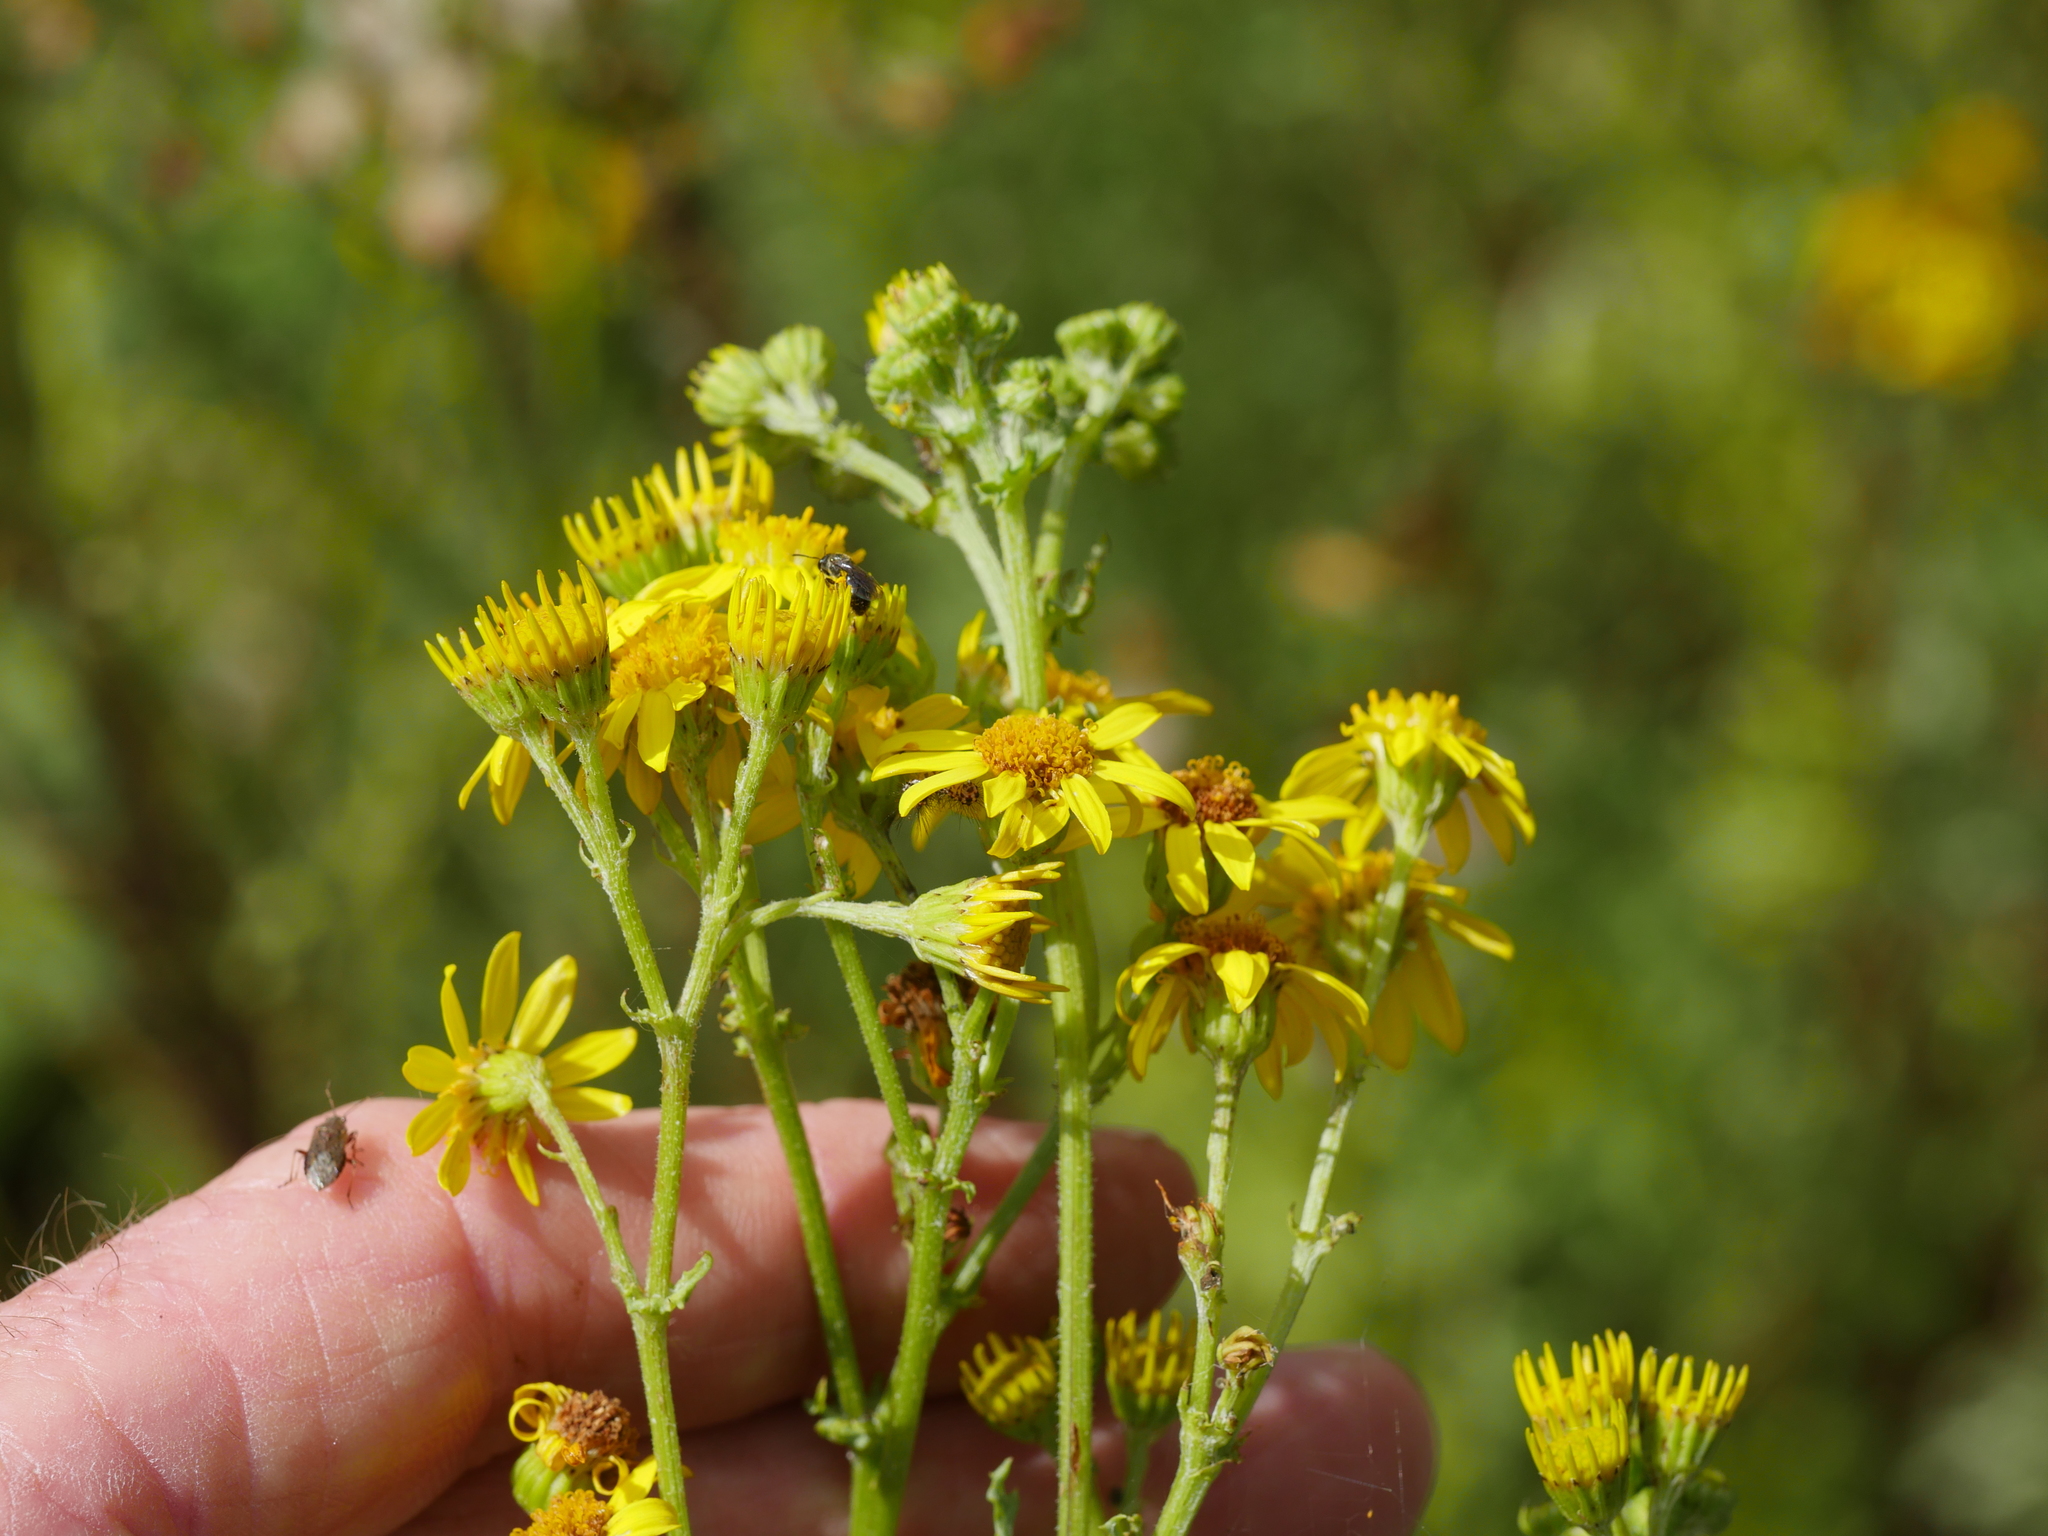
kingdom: Plantae
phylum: Tracheophyta
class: Magnoliopsida
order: Asterales
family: Asteraceae
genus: Jacobaea
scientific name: Jacobaea vulgaris
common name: Stinking willie
